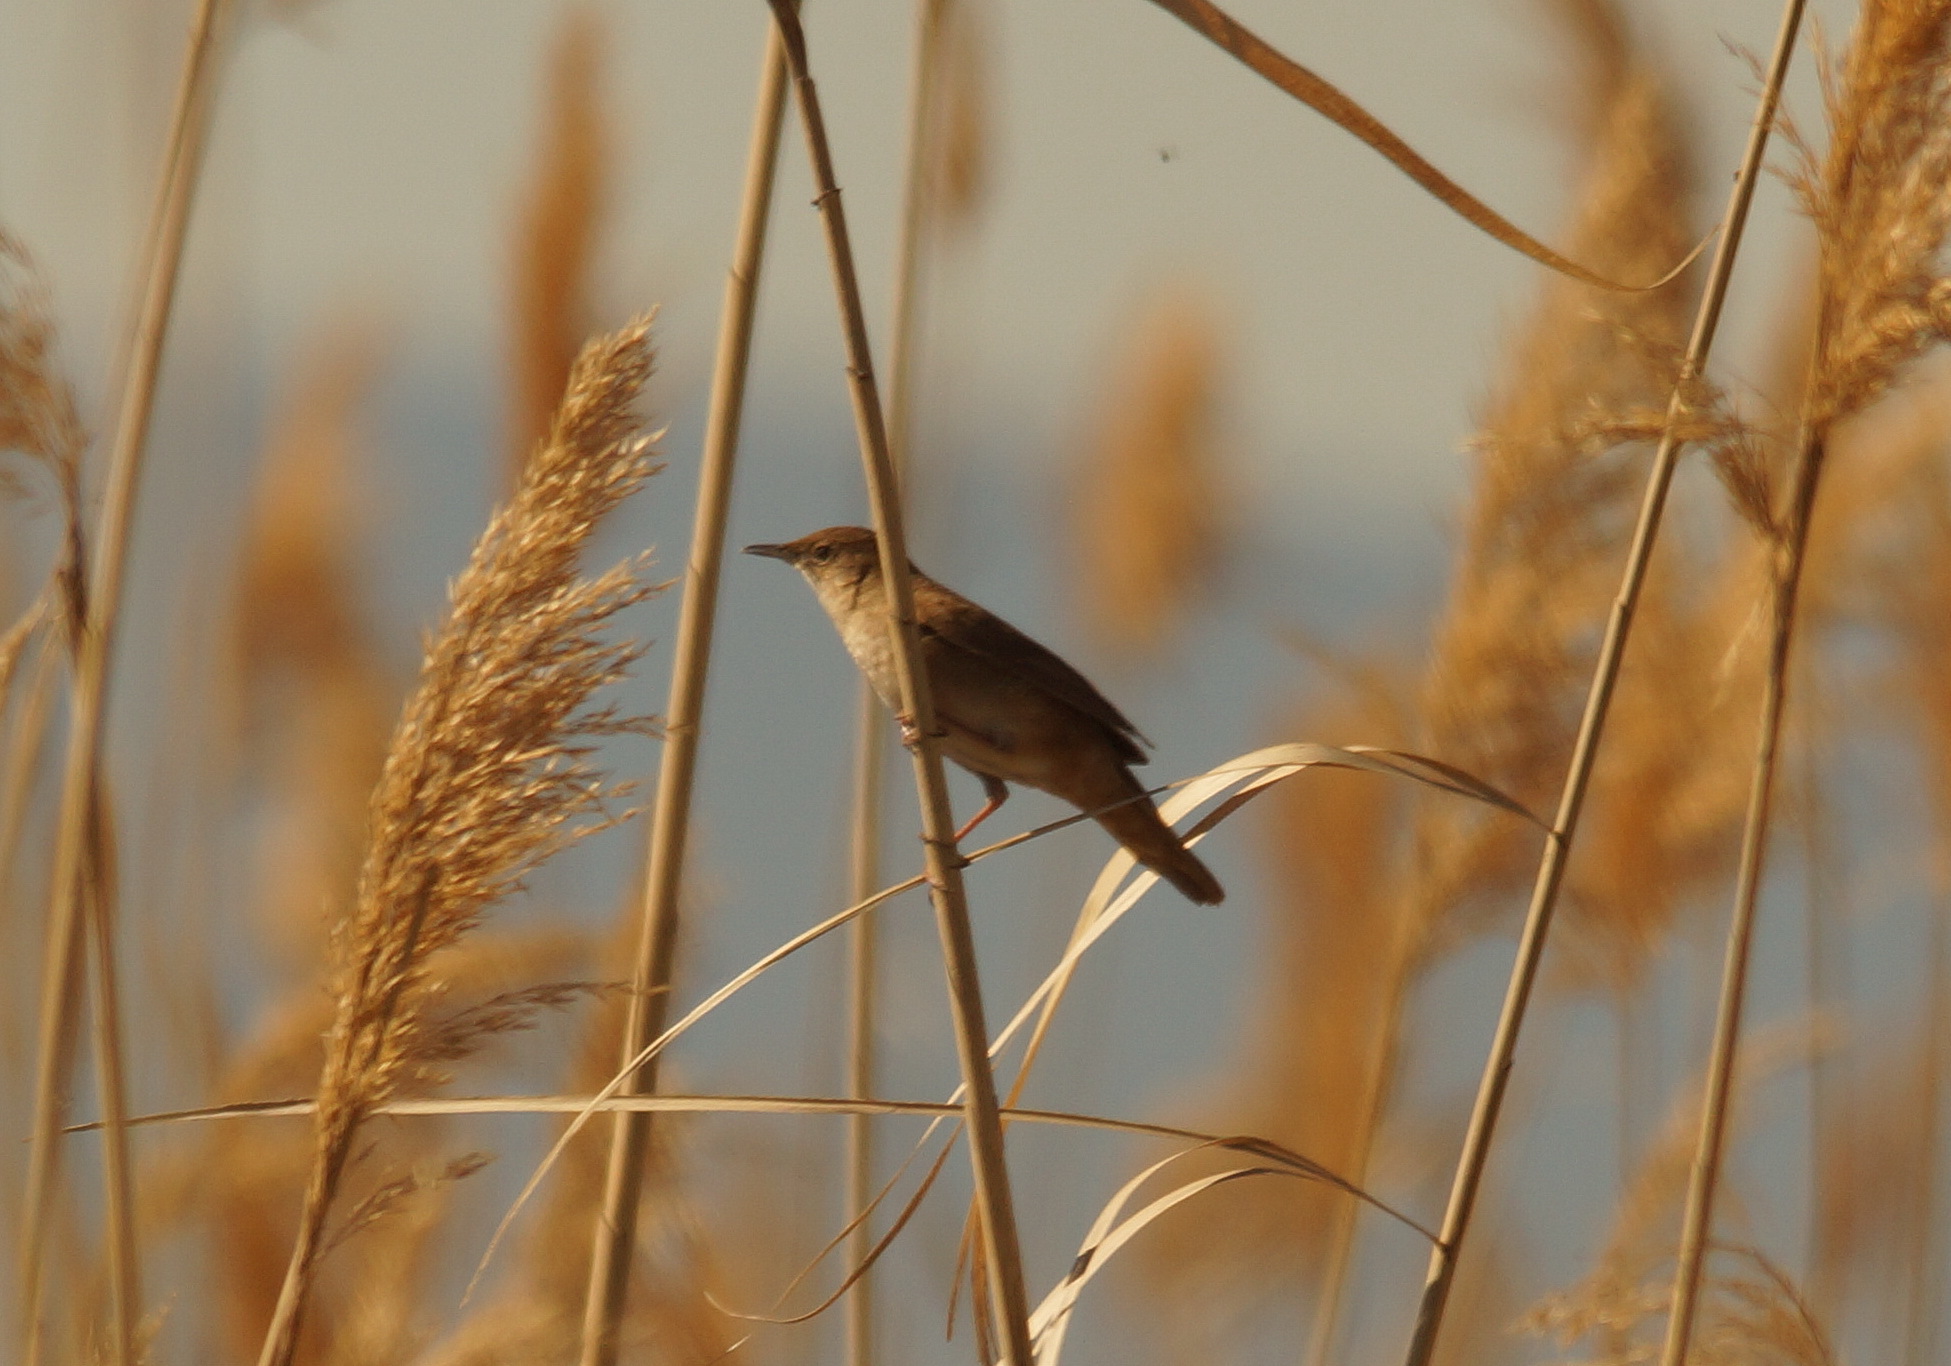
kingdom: Animalia
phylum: Chordata
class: Aves
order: Passeriformes
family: Locustellidae
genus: Locustella
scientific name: Locustella luscinioides
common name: Savi's warbler
